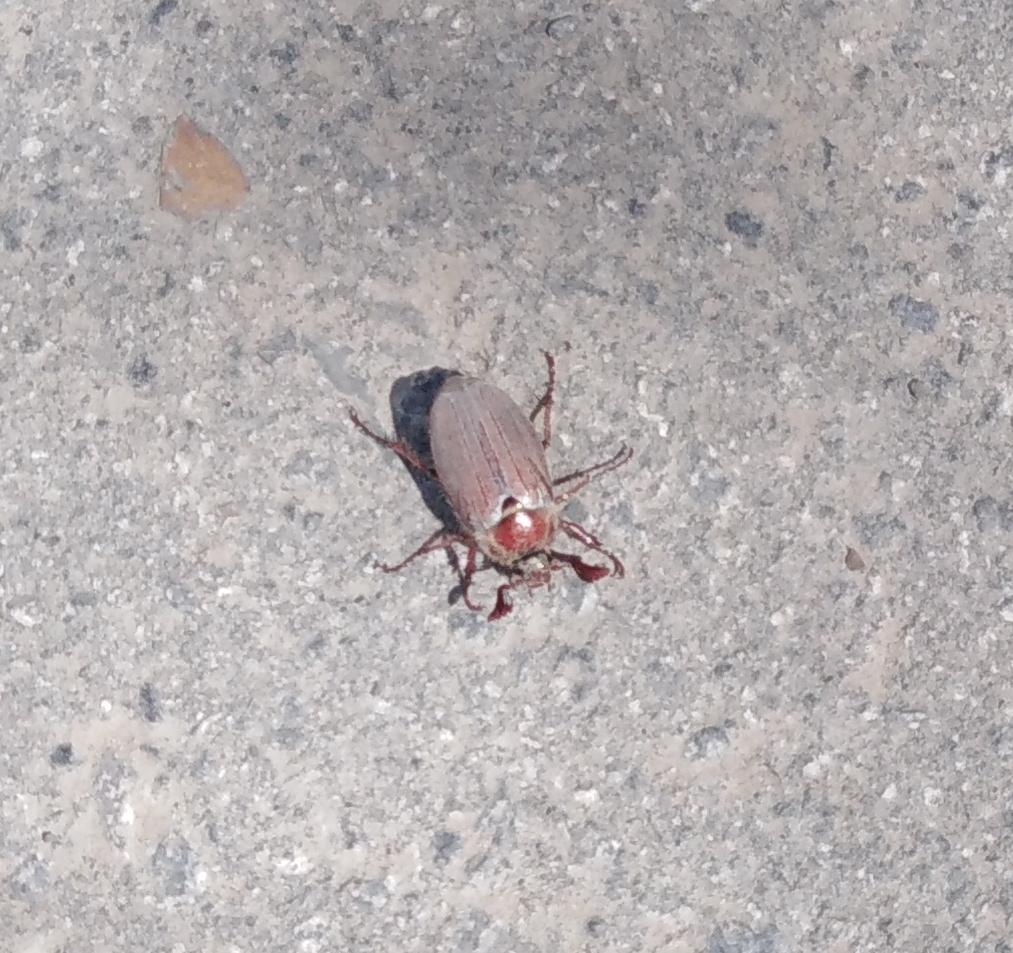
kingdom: Animalia
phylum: Arthropoda
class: Insecta
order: Coleoptera
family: Scarabaeidae
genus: Melolontha
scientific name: Melolontha hippocastani
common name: Chestnut cockchafer
